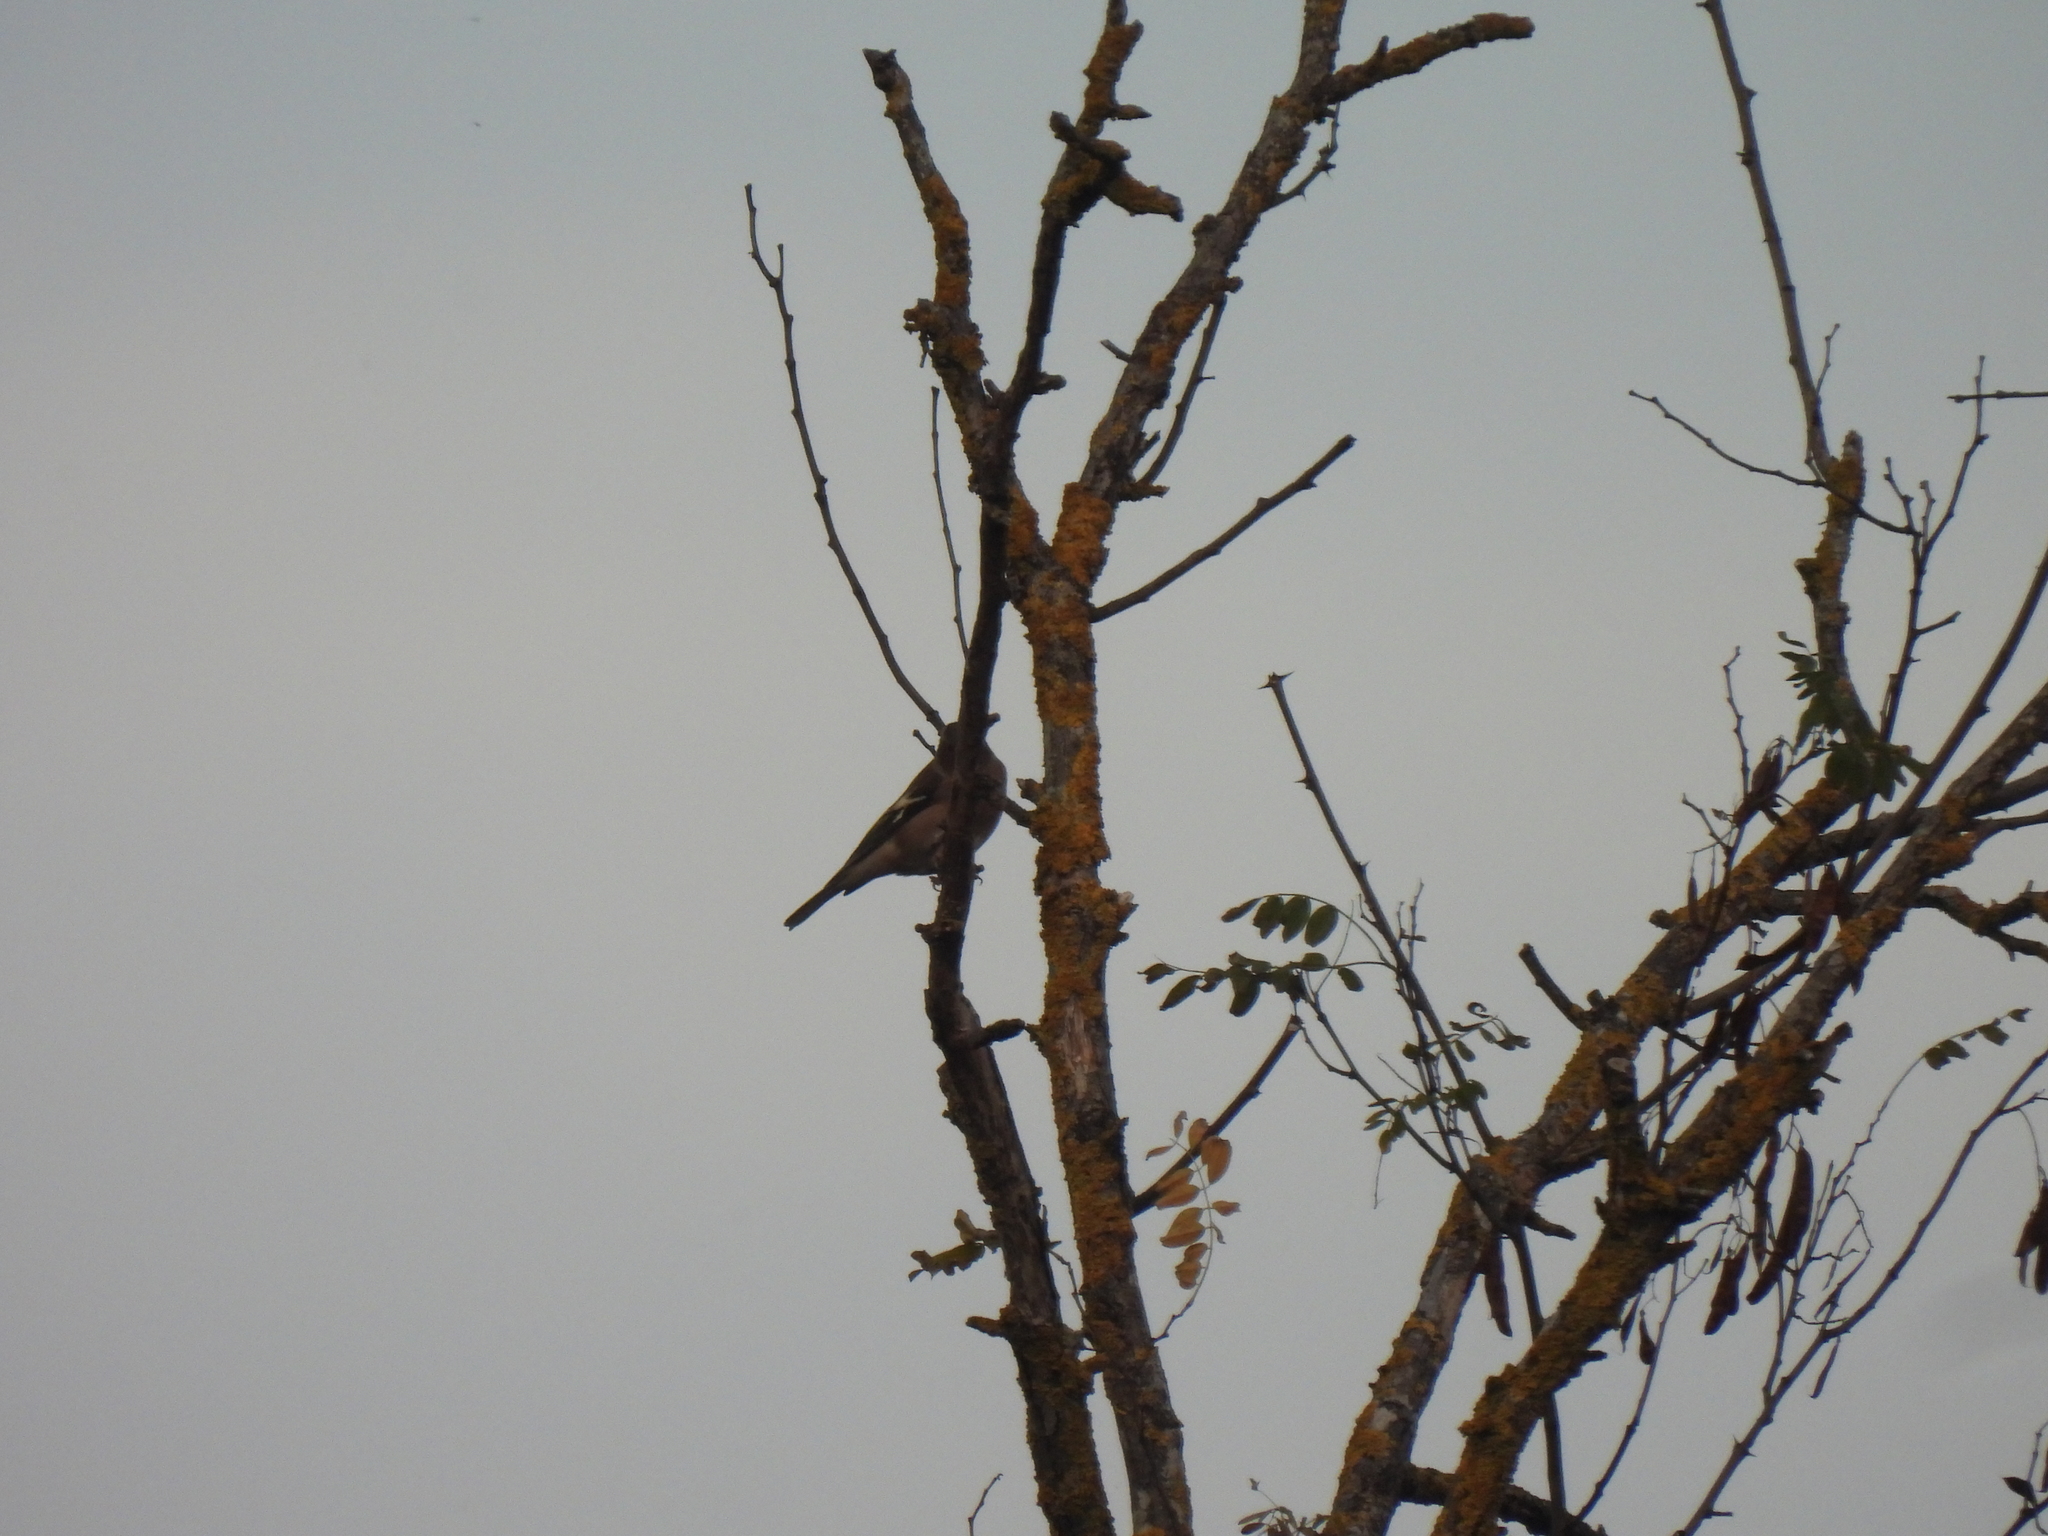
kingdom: Animalia
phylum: Chordata
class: Aves
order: Passeriformes
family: Fringillidae
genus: Fringilla
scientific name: Fringilla coelebs
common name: Common chaffinch
